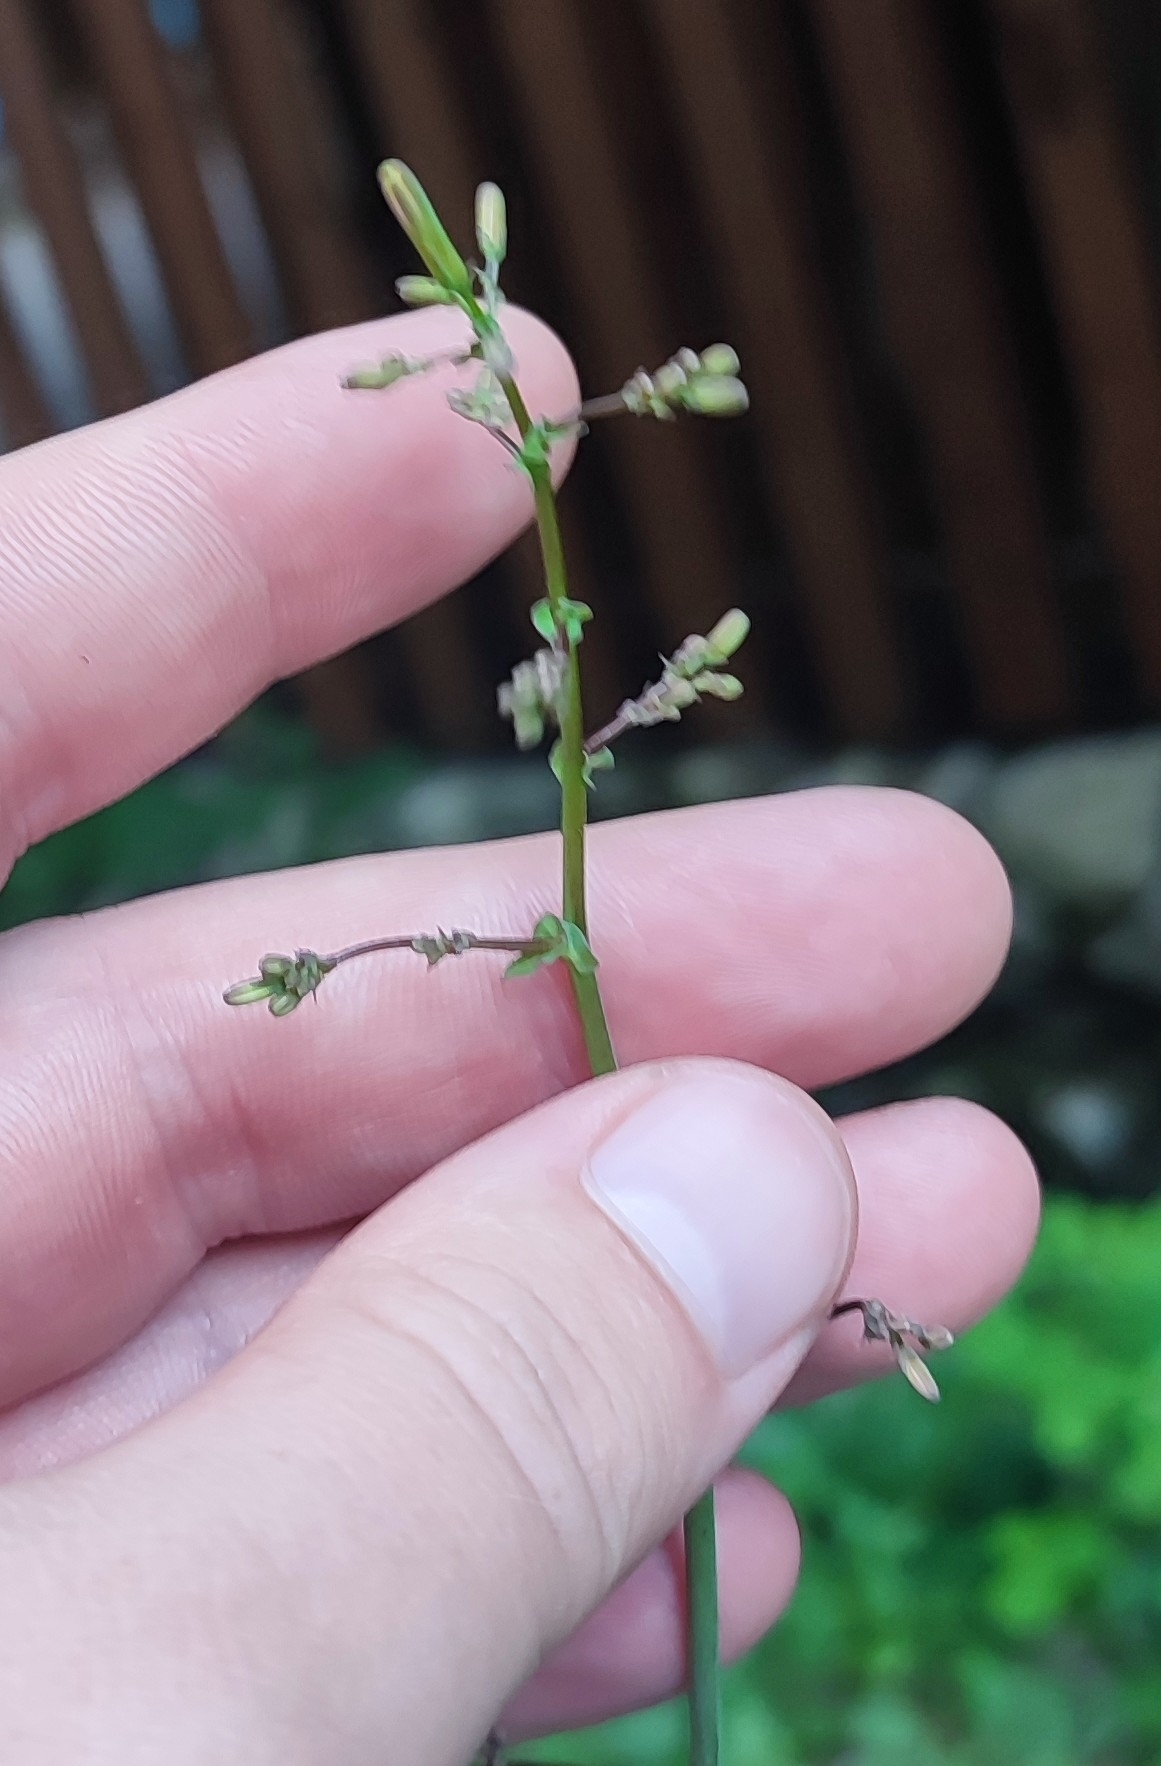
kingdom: Plantae
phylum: Tracheophyta
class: Magnoliopsida
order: Asterales
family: Asteraceae
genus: Mycelis
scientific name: Mycelis muralis
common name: Wall lettuce
